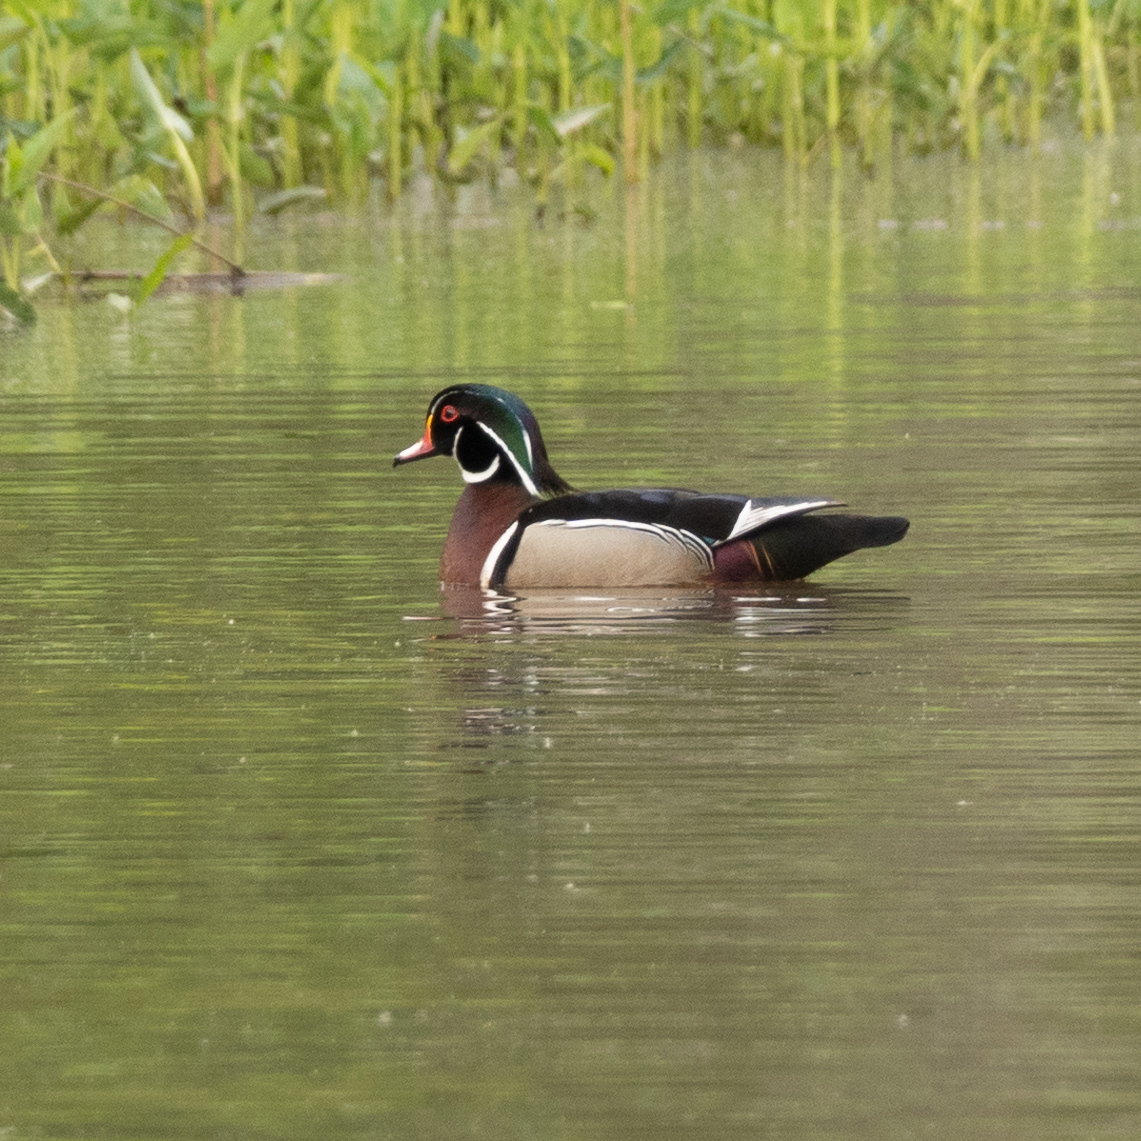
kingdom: Animalia
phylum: Chordata
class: Aves
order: Anseriformes
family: Anatidae
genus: Aix
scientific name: Aix sponsa
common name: Wood duck
